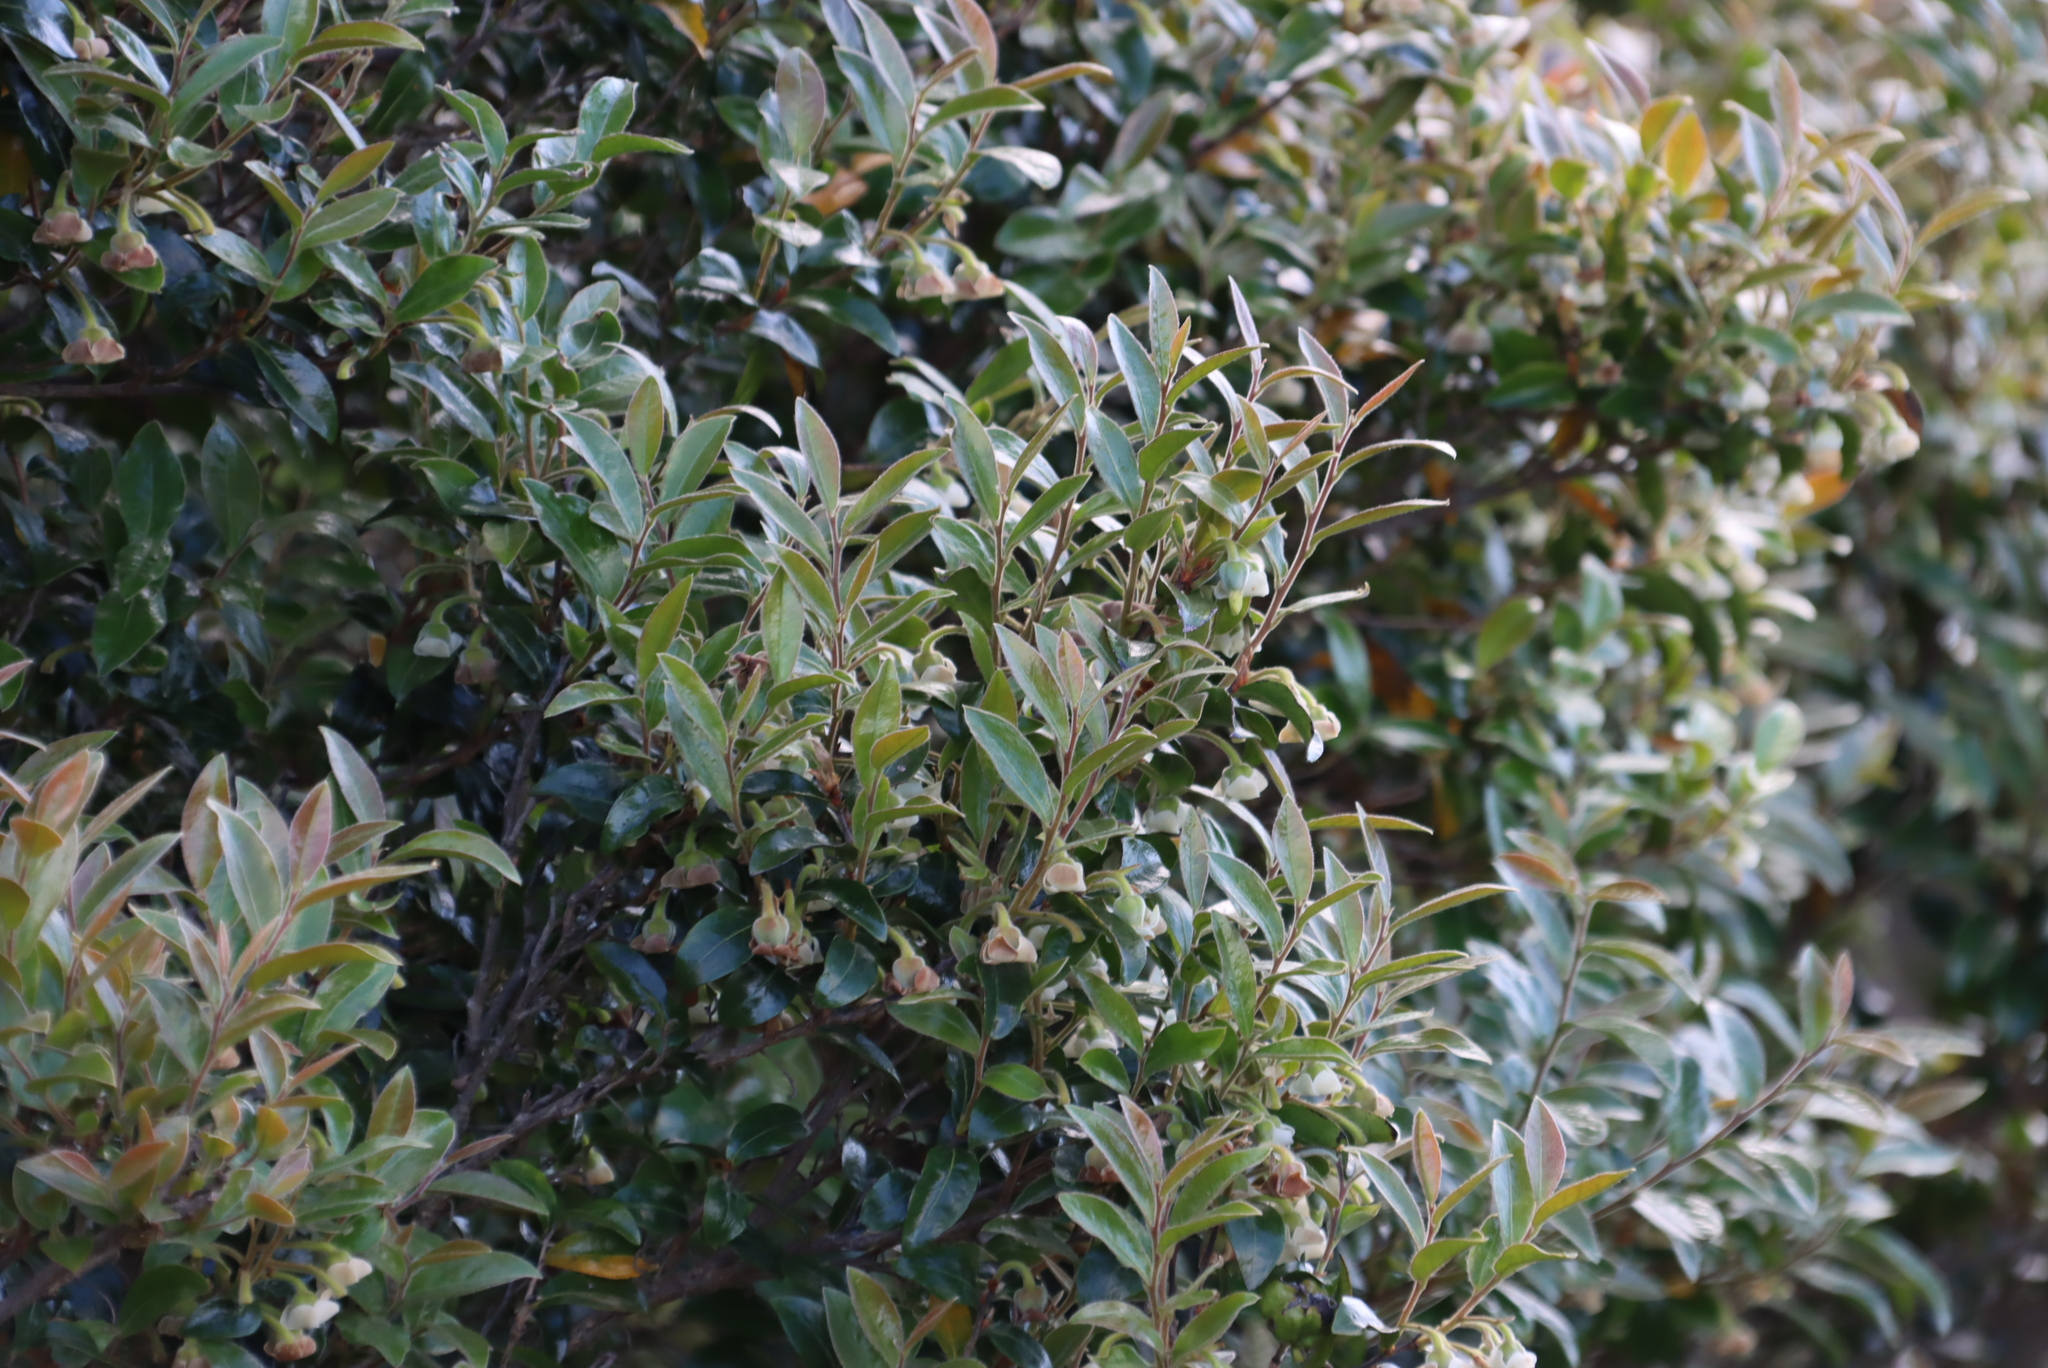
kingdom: Plantae
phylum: Tracheophyta
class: Magnoliopsida
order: Ericales
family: Ebenaceae
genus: Diospyros
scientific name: Diospyros whyteana
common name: Bladder-nut
